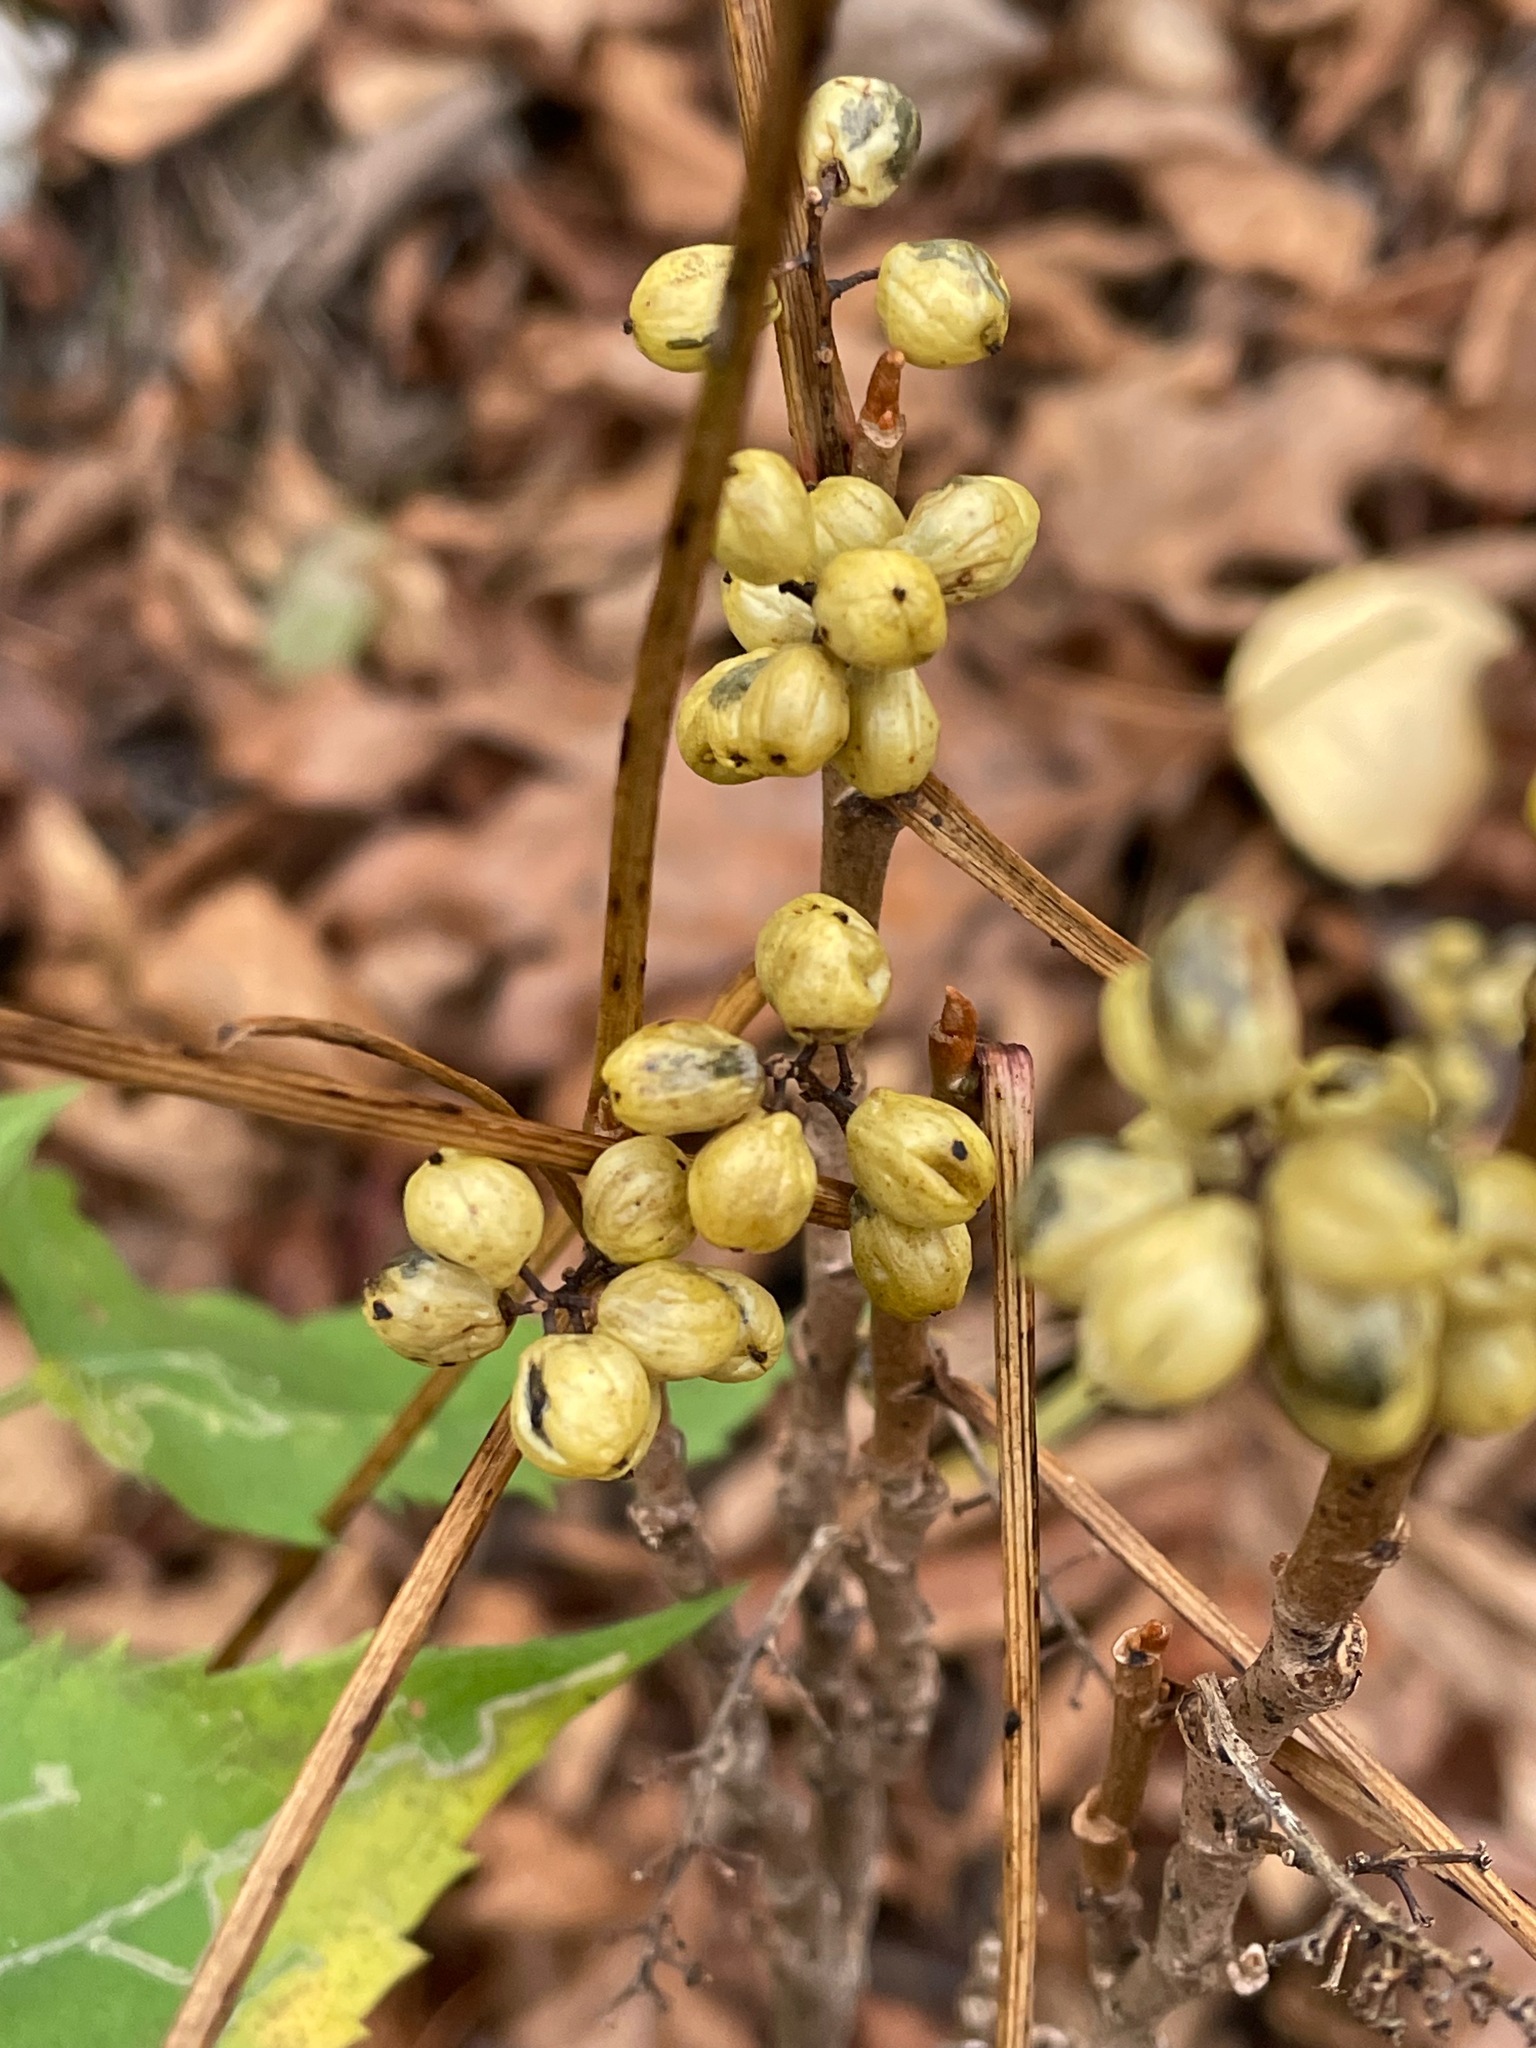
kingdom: Plantae
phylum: Tracheophyta
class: Magnoliopsida
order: Sapindales
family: Anacardiaceae
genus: Toxicodendron
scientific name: Toxicodendron rydbergii
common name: Rydberg's poison-ivy
